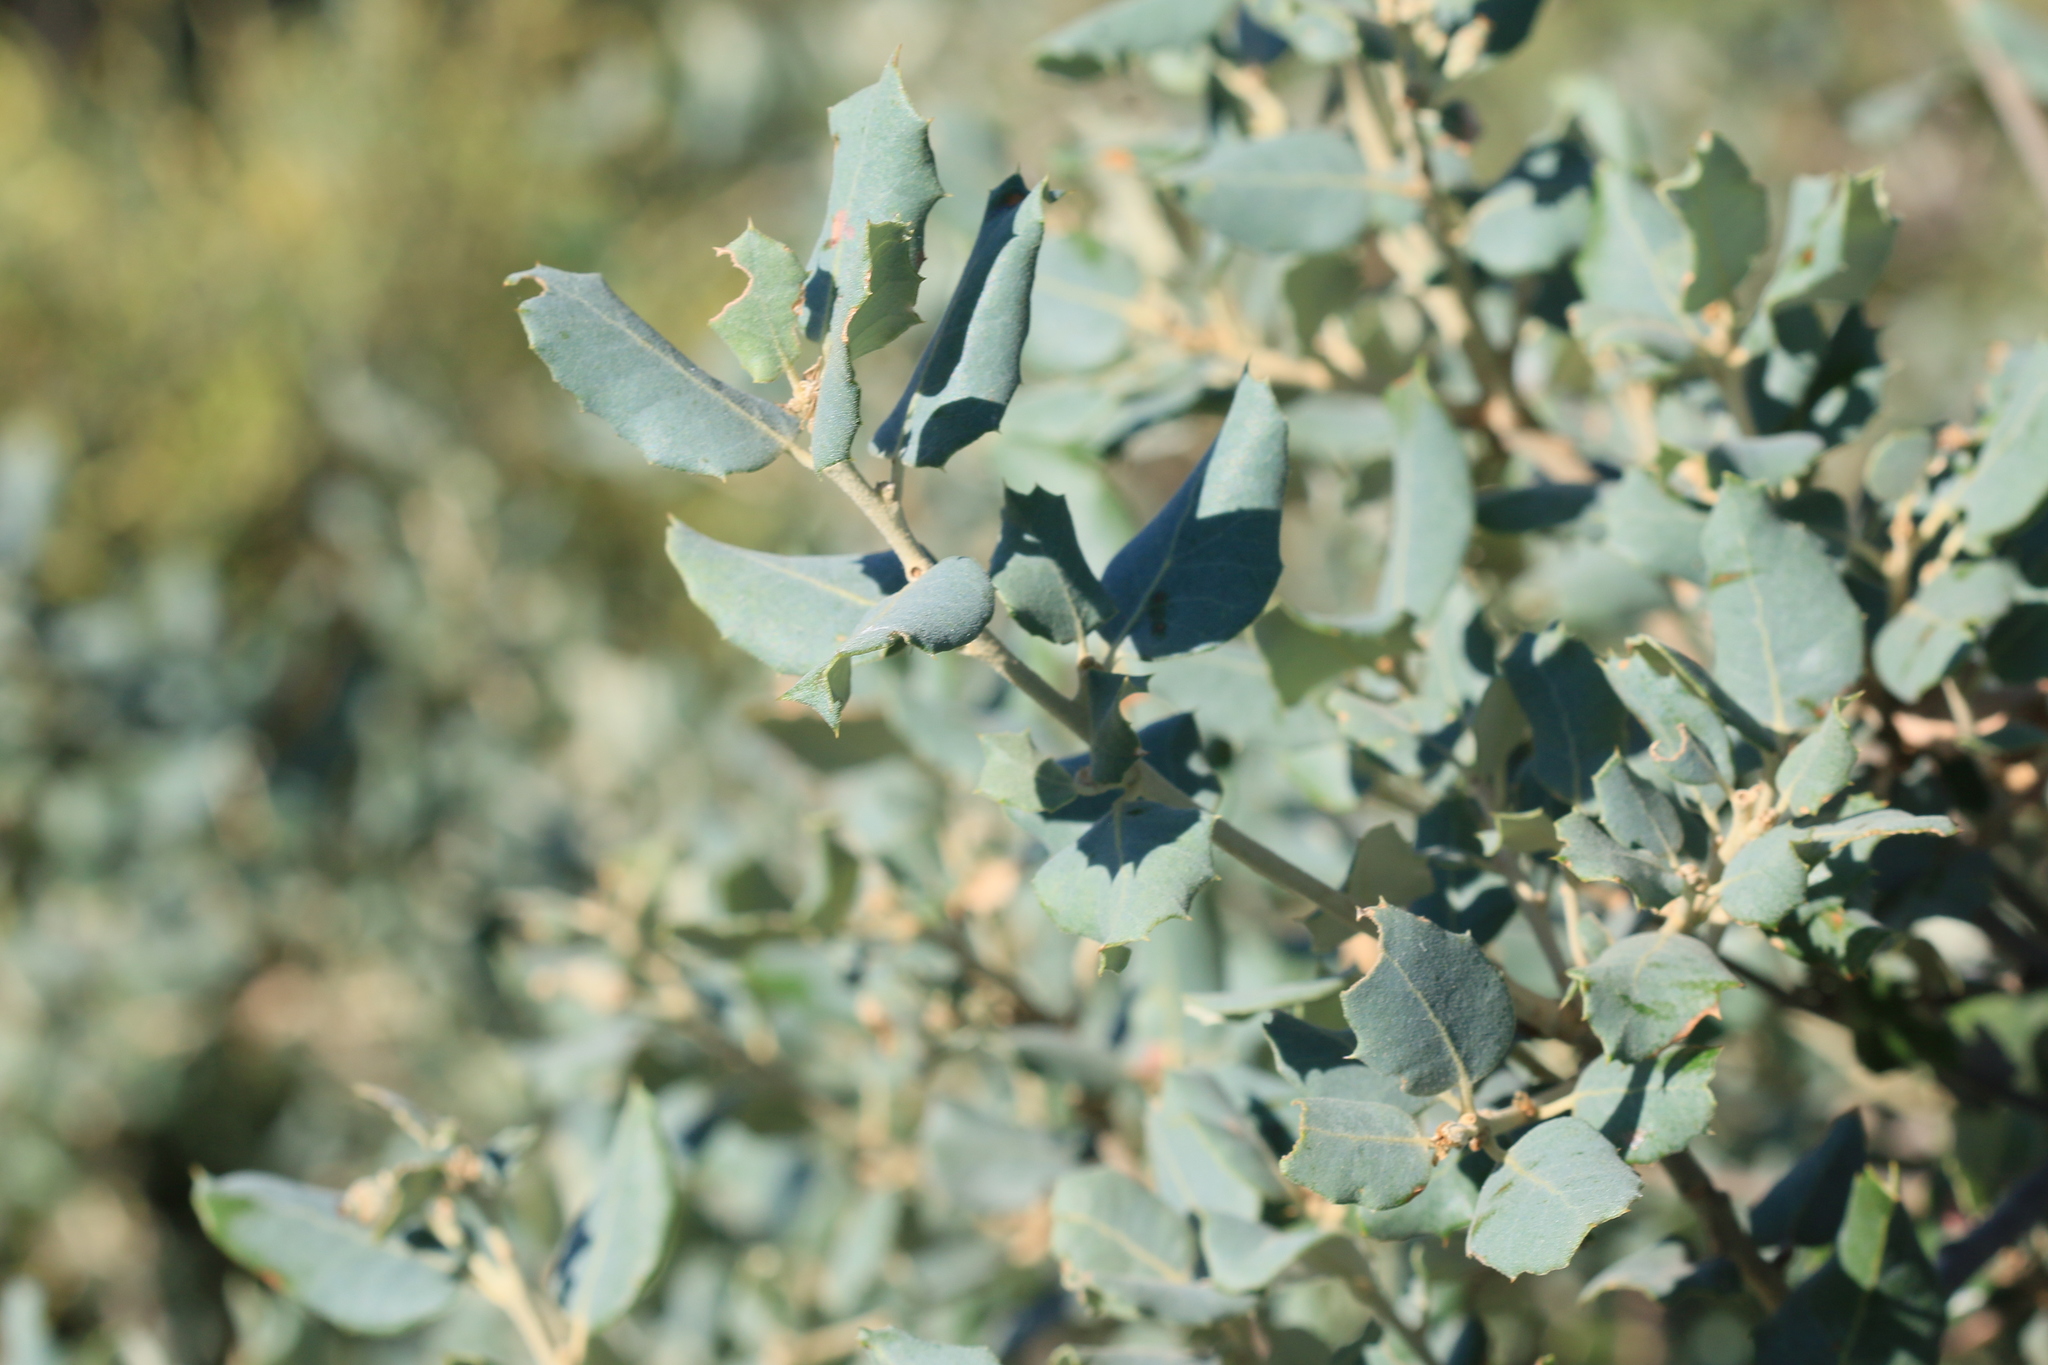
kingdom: Plantae
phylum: Tracheophyta
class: Magnoliopsida
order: Fagales
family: Fagaceae
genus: Quercus
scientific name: Quercus rotundifolia
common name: Holm oak
